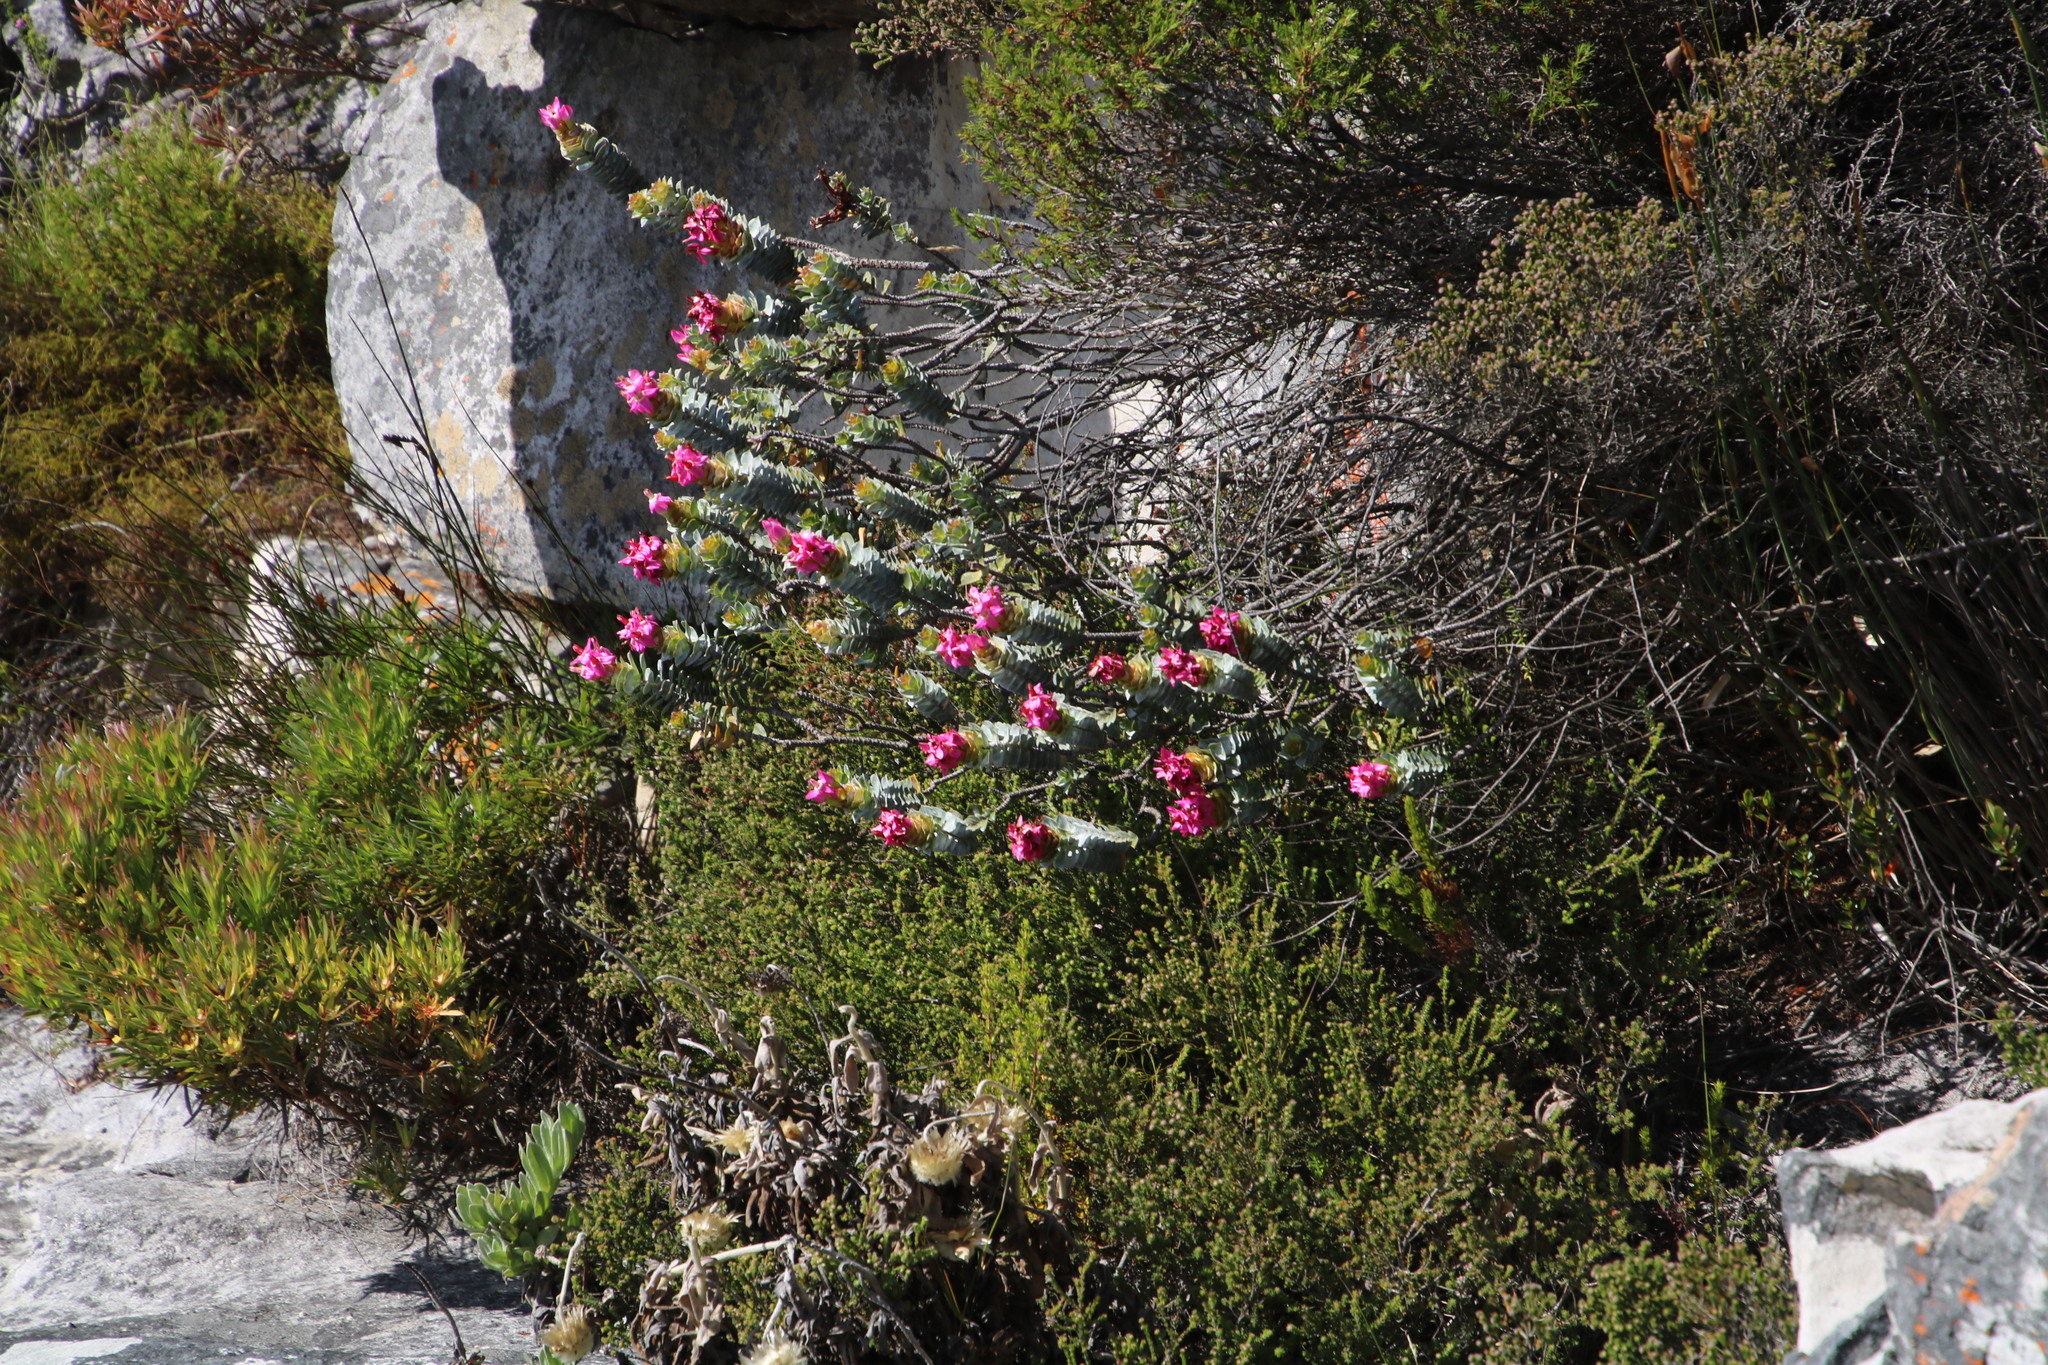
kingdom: Plantae
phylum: Tracheophyta
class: Magnoliopsida
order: Myrtales
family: Penaeaceae
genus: Saltera
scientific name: Saltera sarcocolla
